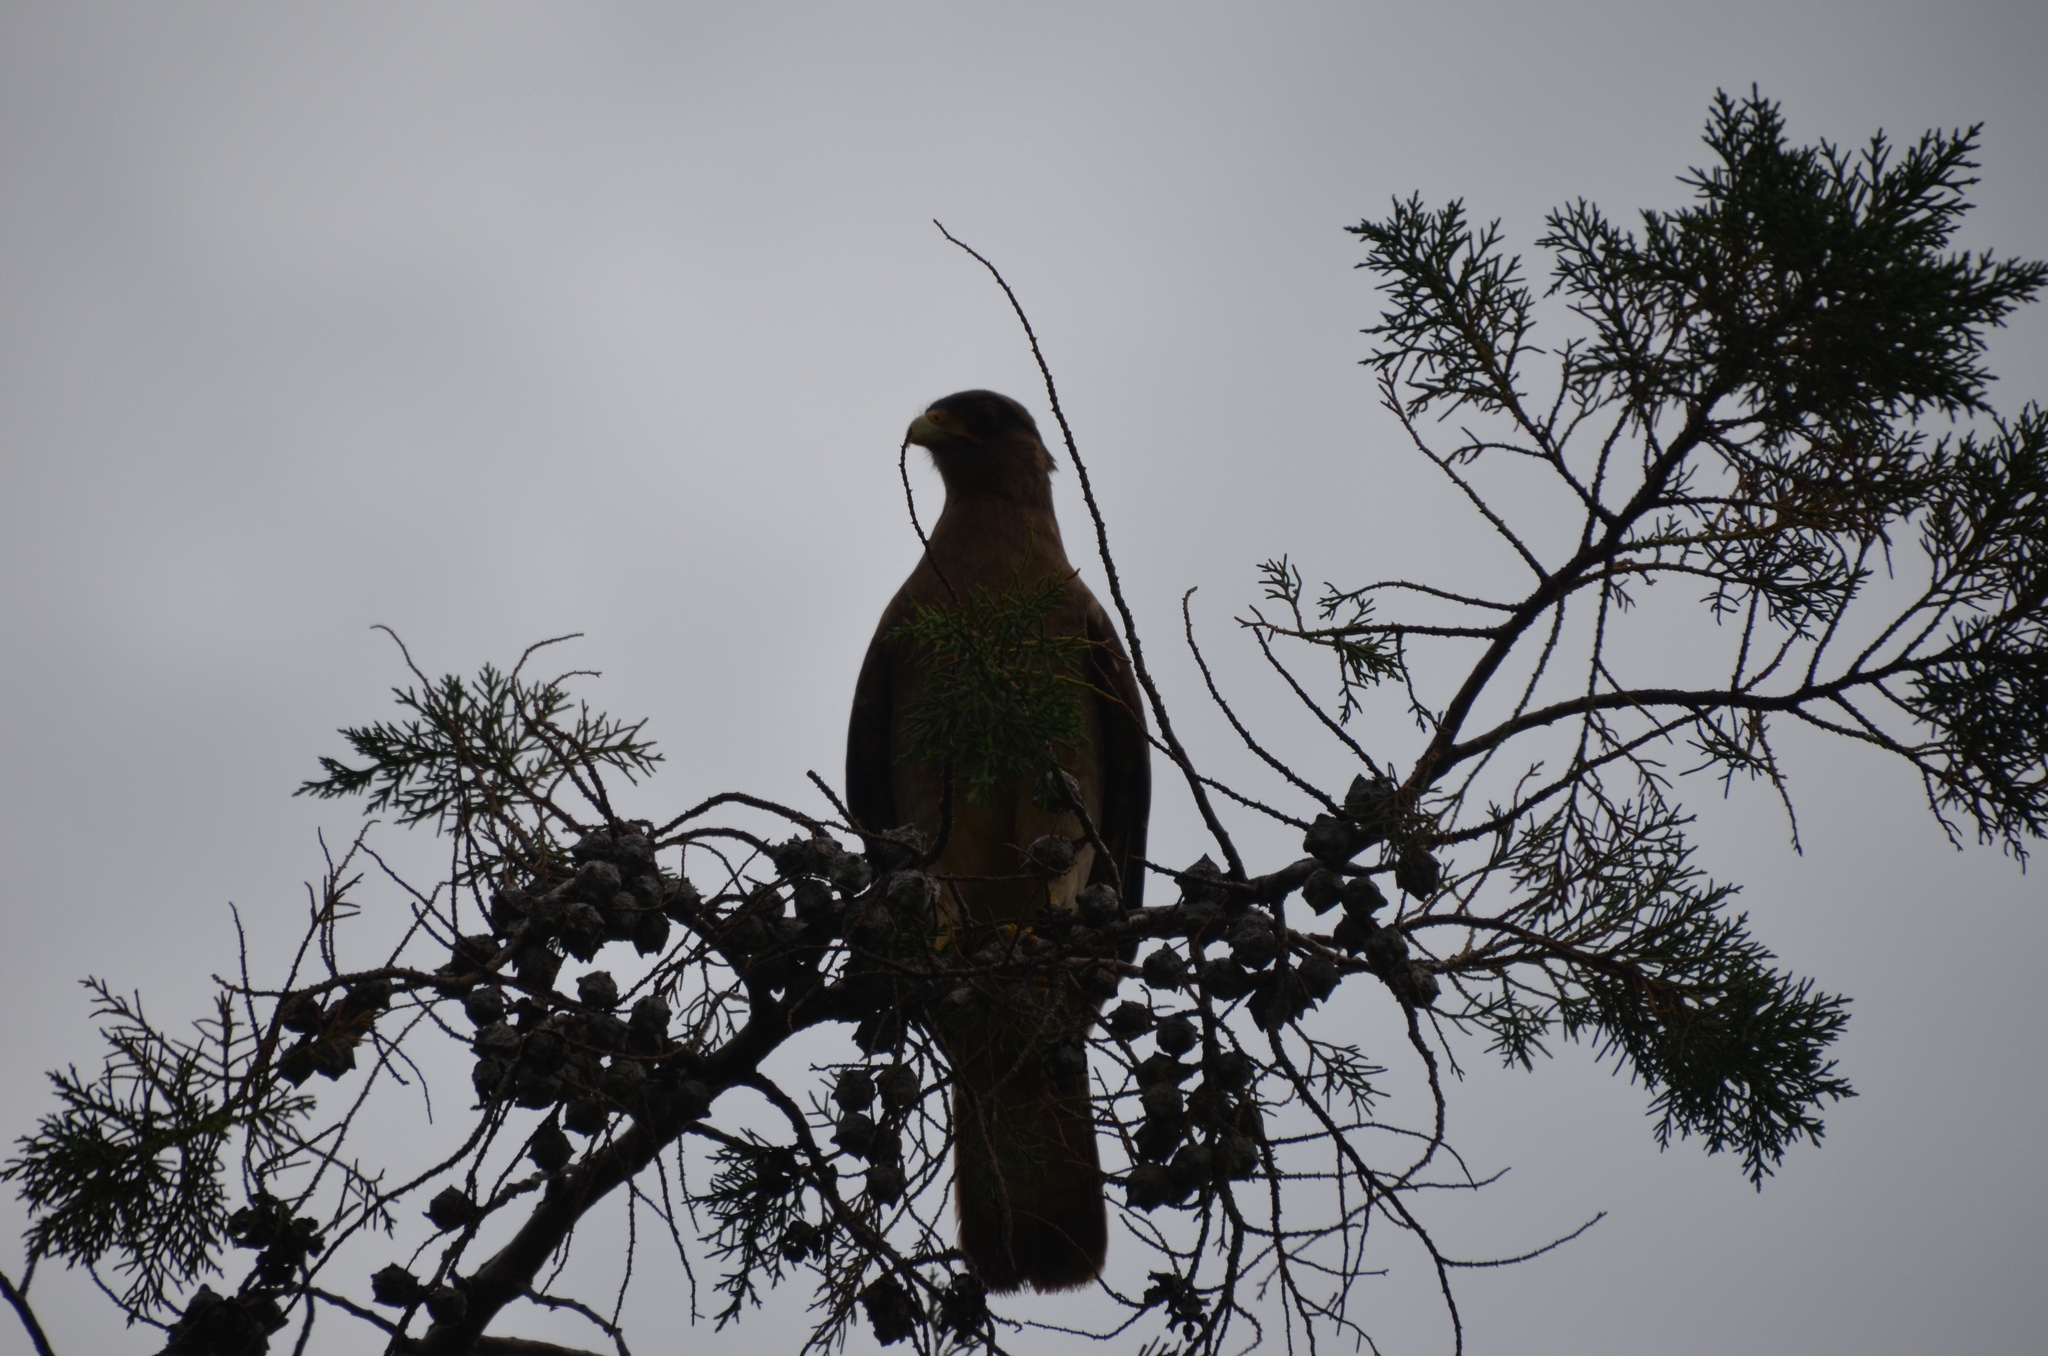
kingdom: Animalia
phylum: Chordata
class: Aves
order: Falconiformes
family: Falconidae
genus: Daptrius
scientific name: Daptrius
